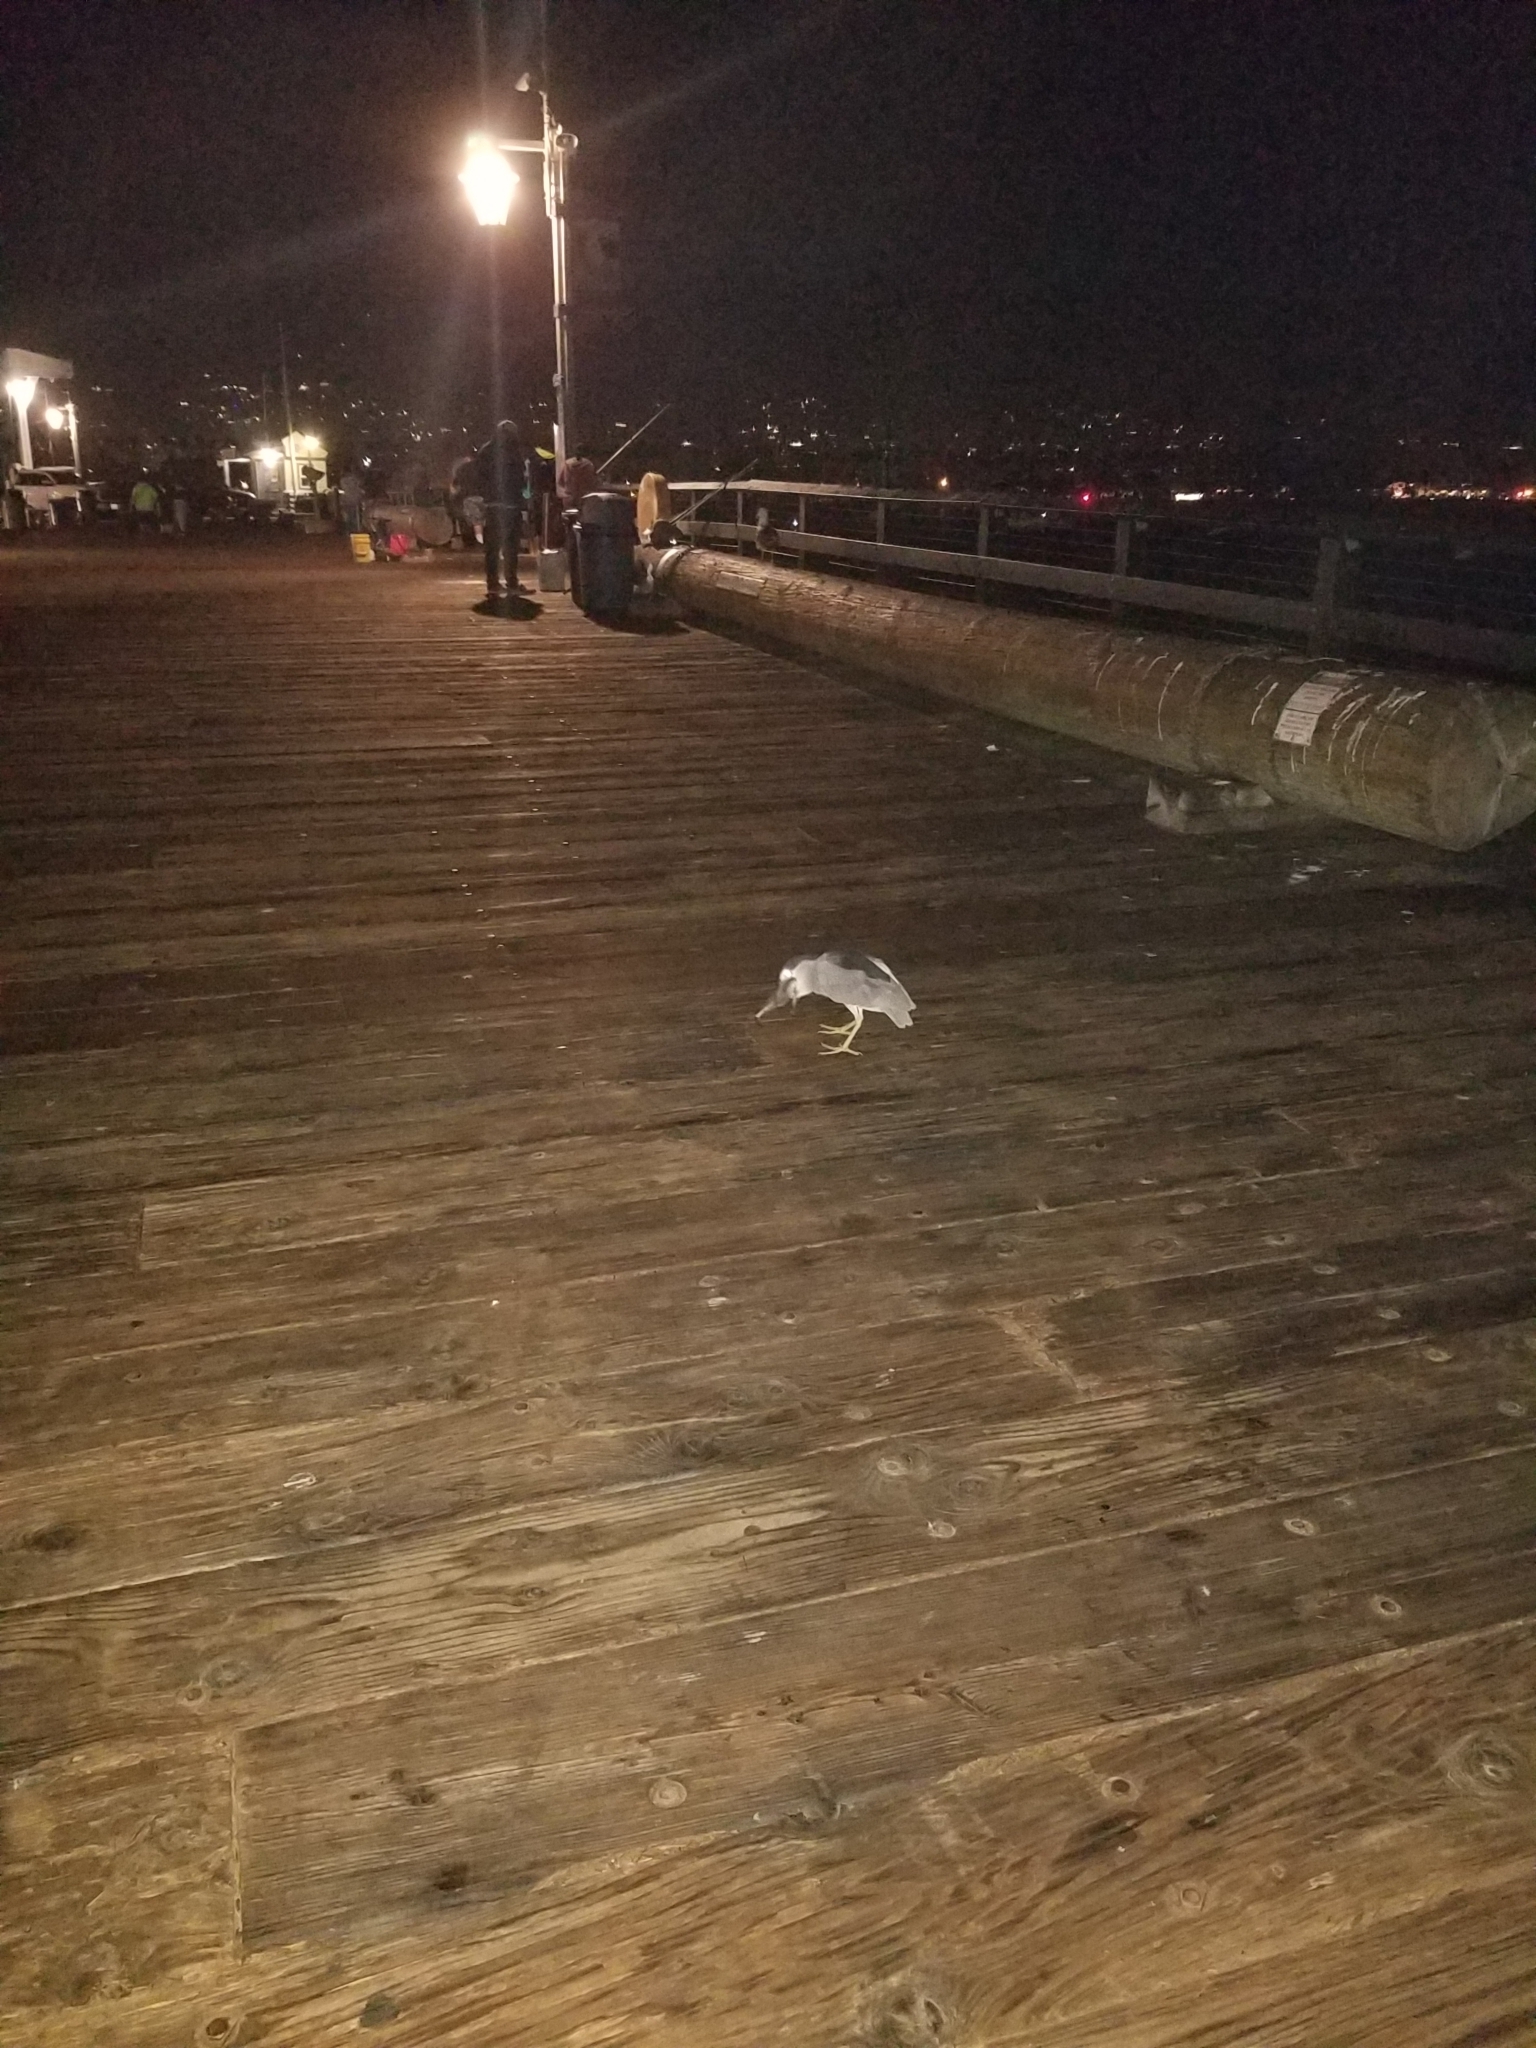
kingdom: Animalia
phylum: Chordata
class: Aves
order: Pelecaniformes
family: Ardeidae
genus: Nycticorax
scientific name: Nycticorax nycticorax
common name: Black-crowned night heron
